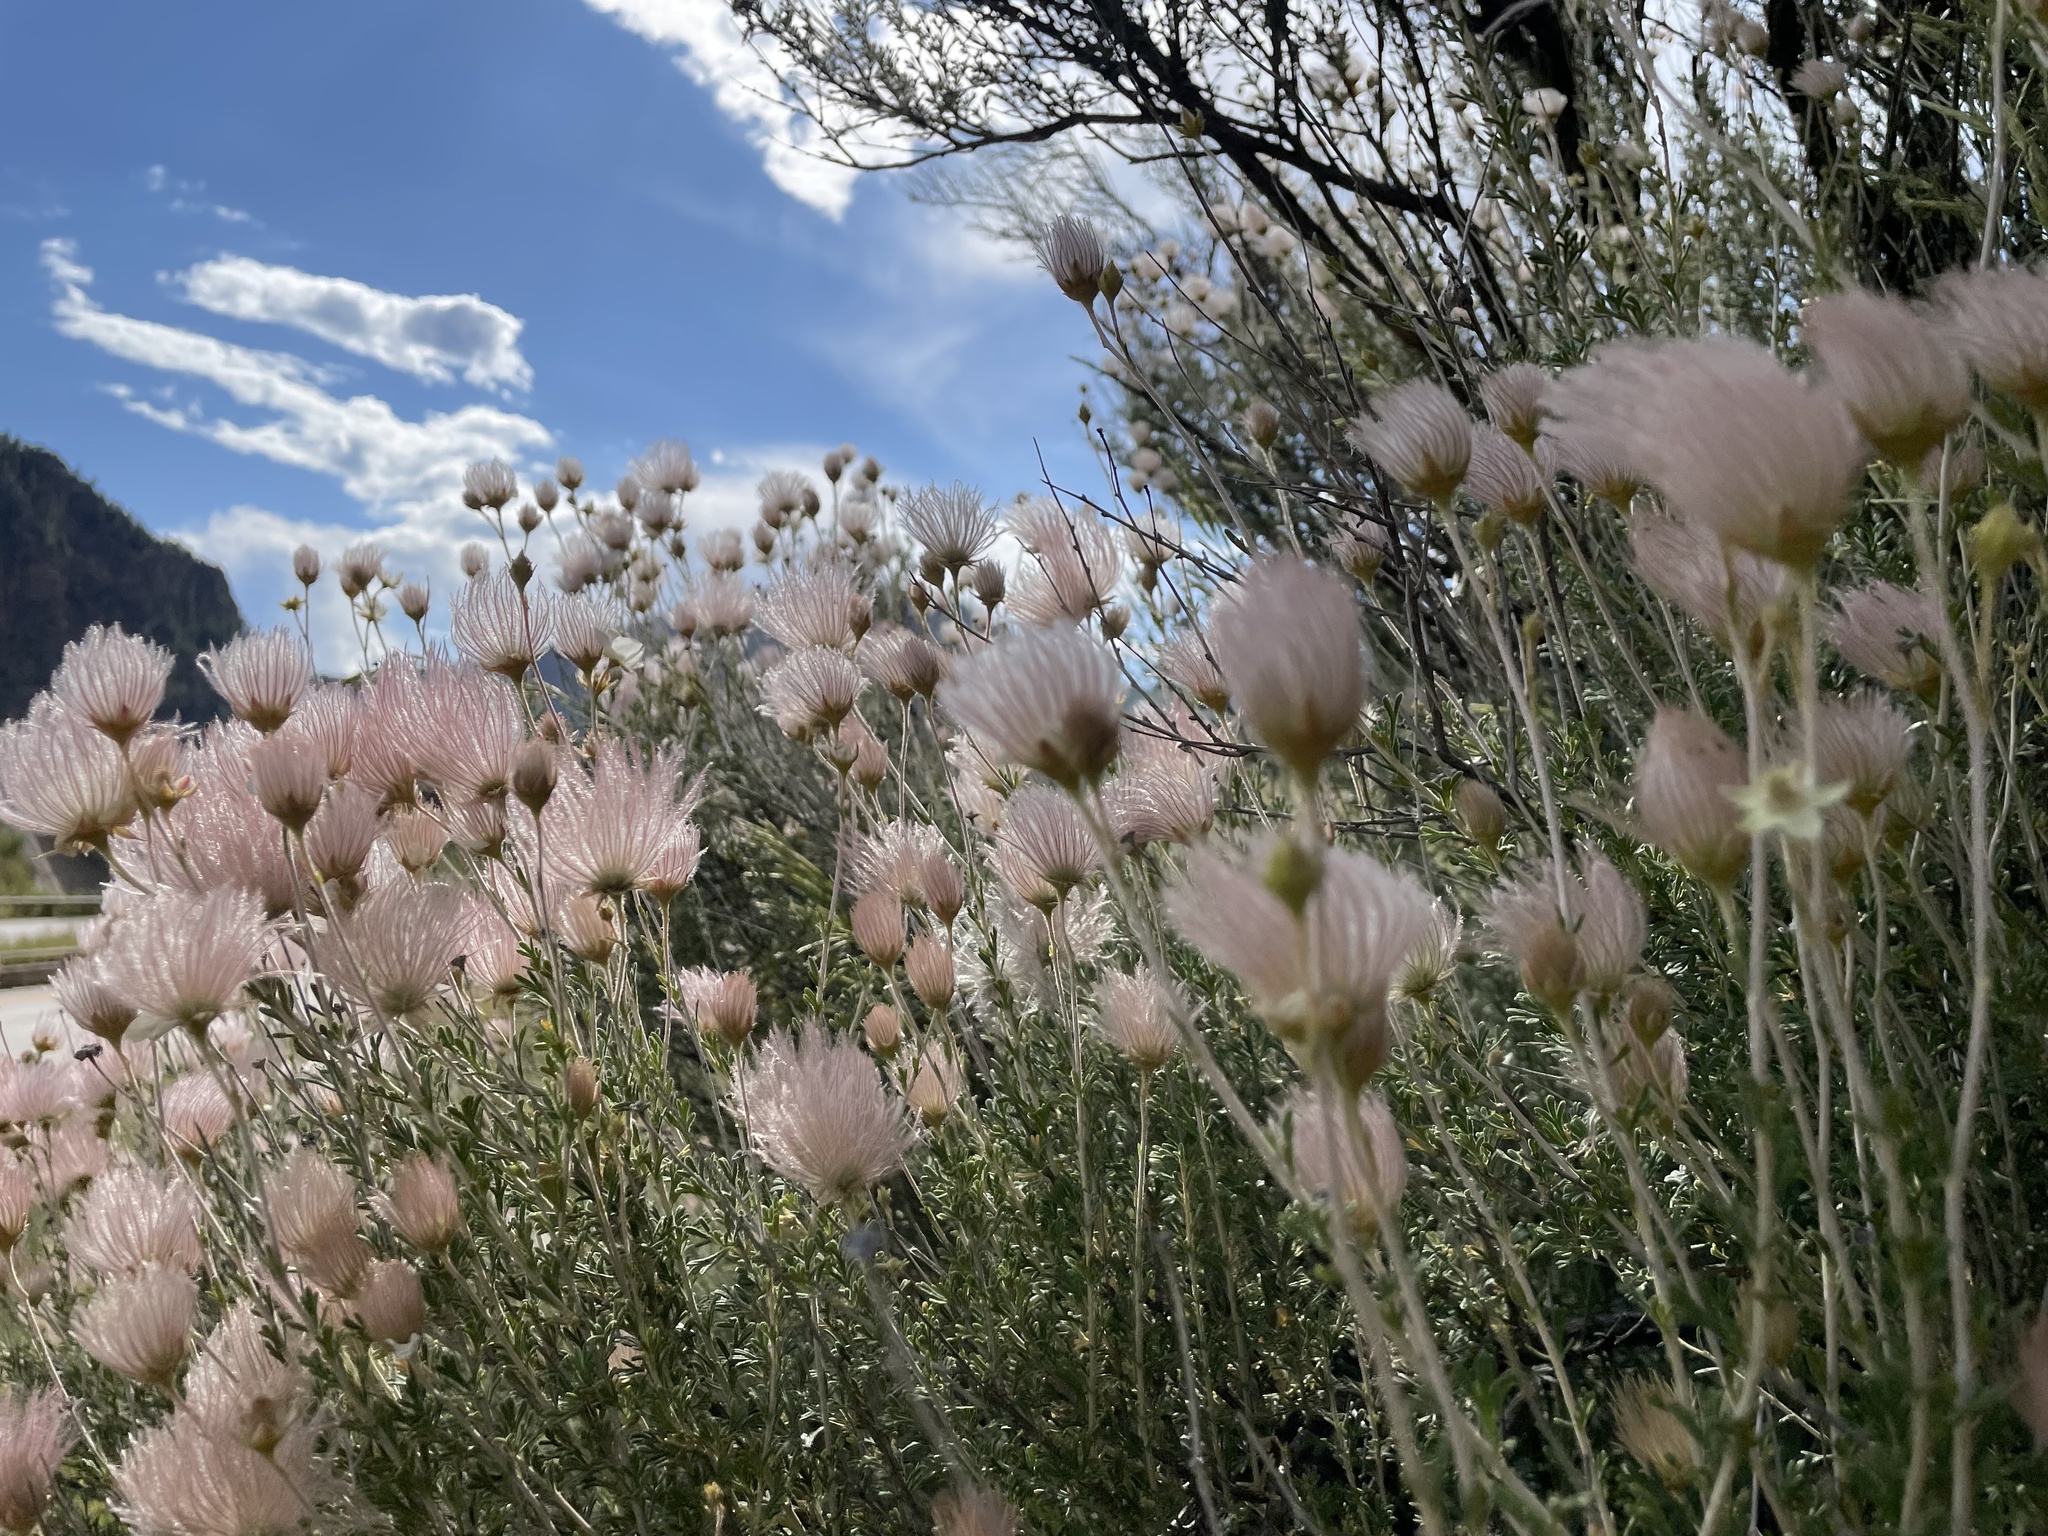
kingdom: Plantae
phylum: Tracheophyta
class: Magnoliopsida
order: Rosales
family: Rosaceae
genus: Fallugia
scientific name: Fallugia paradoxa
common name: Apache-plume
